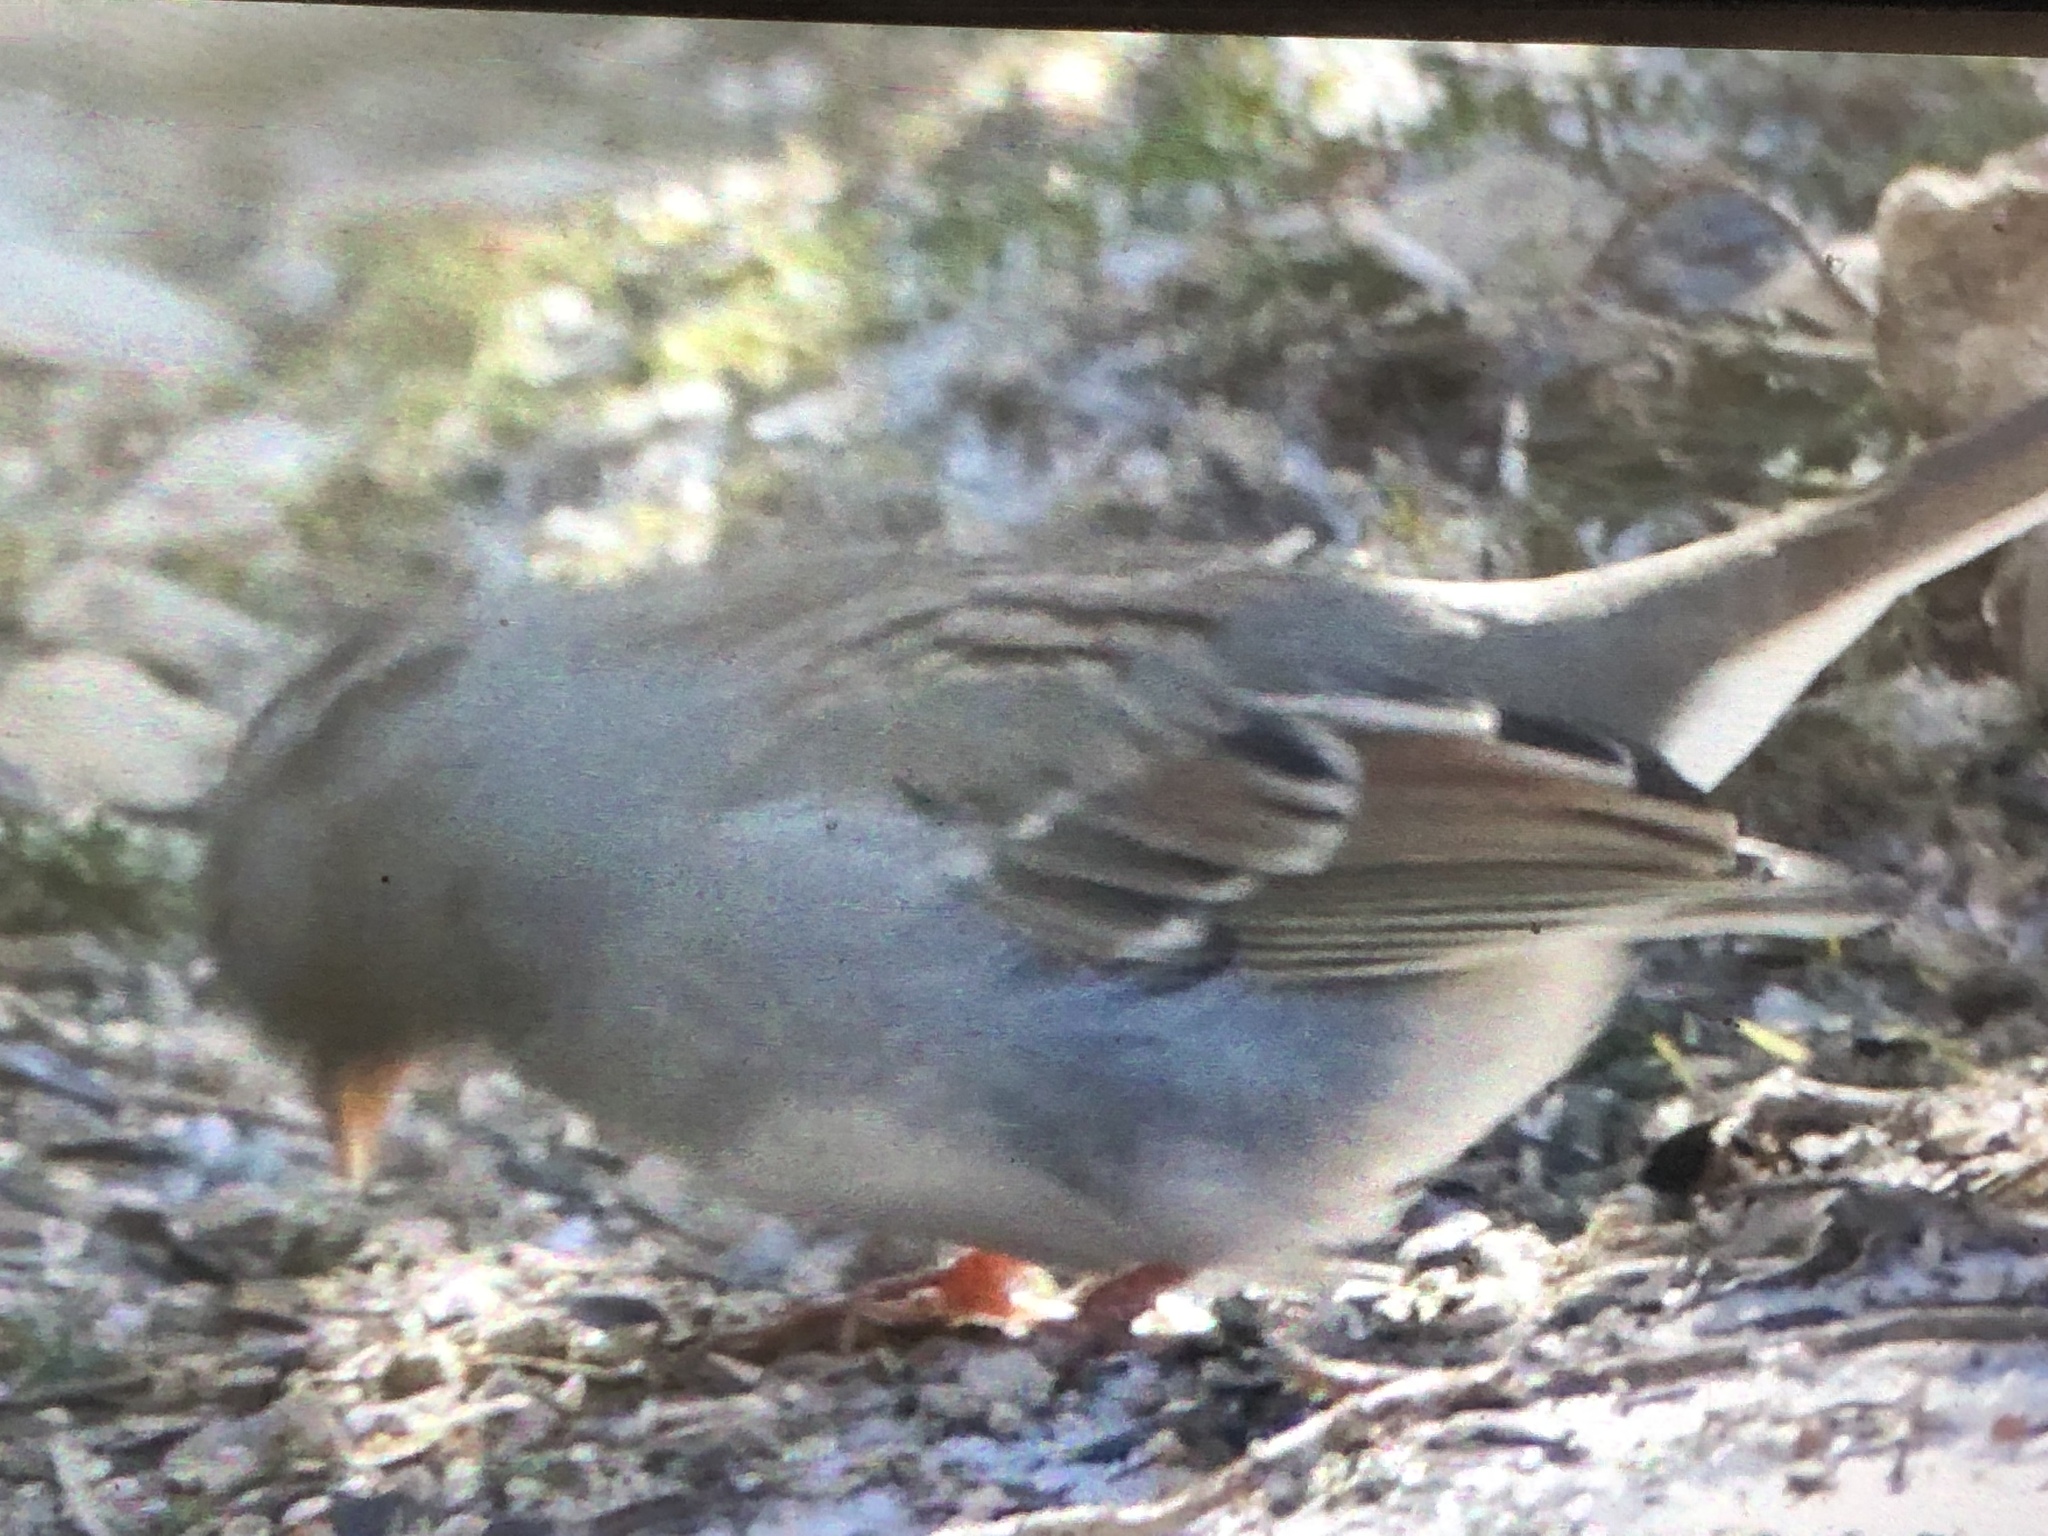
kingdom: Animalia
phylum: Chordata
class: Aves
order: Passeriformes
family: Passerellidae
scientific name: Passerellidae
